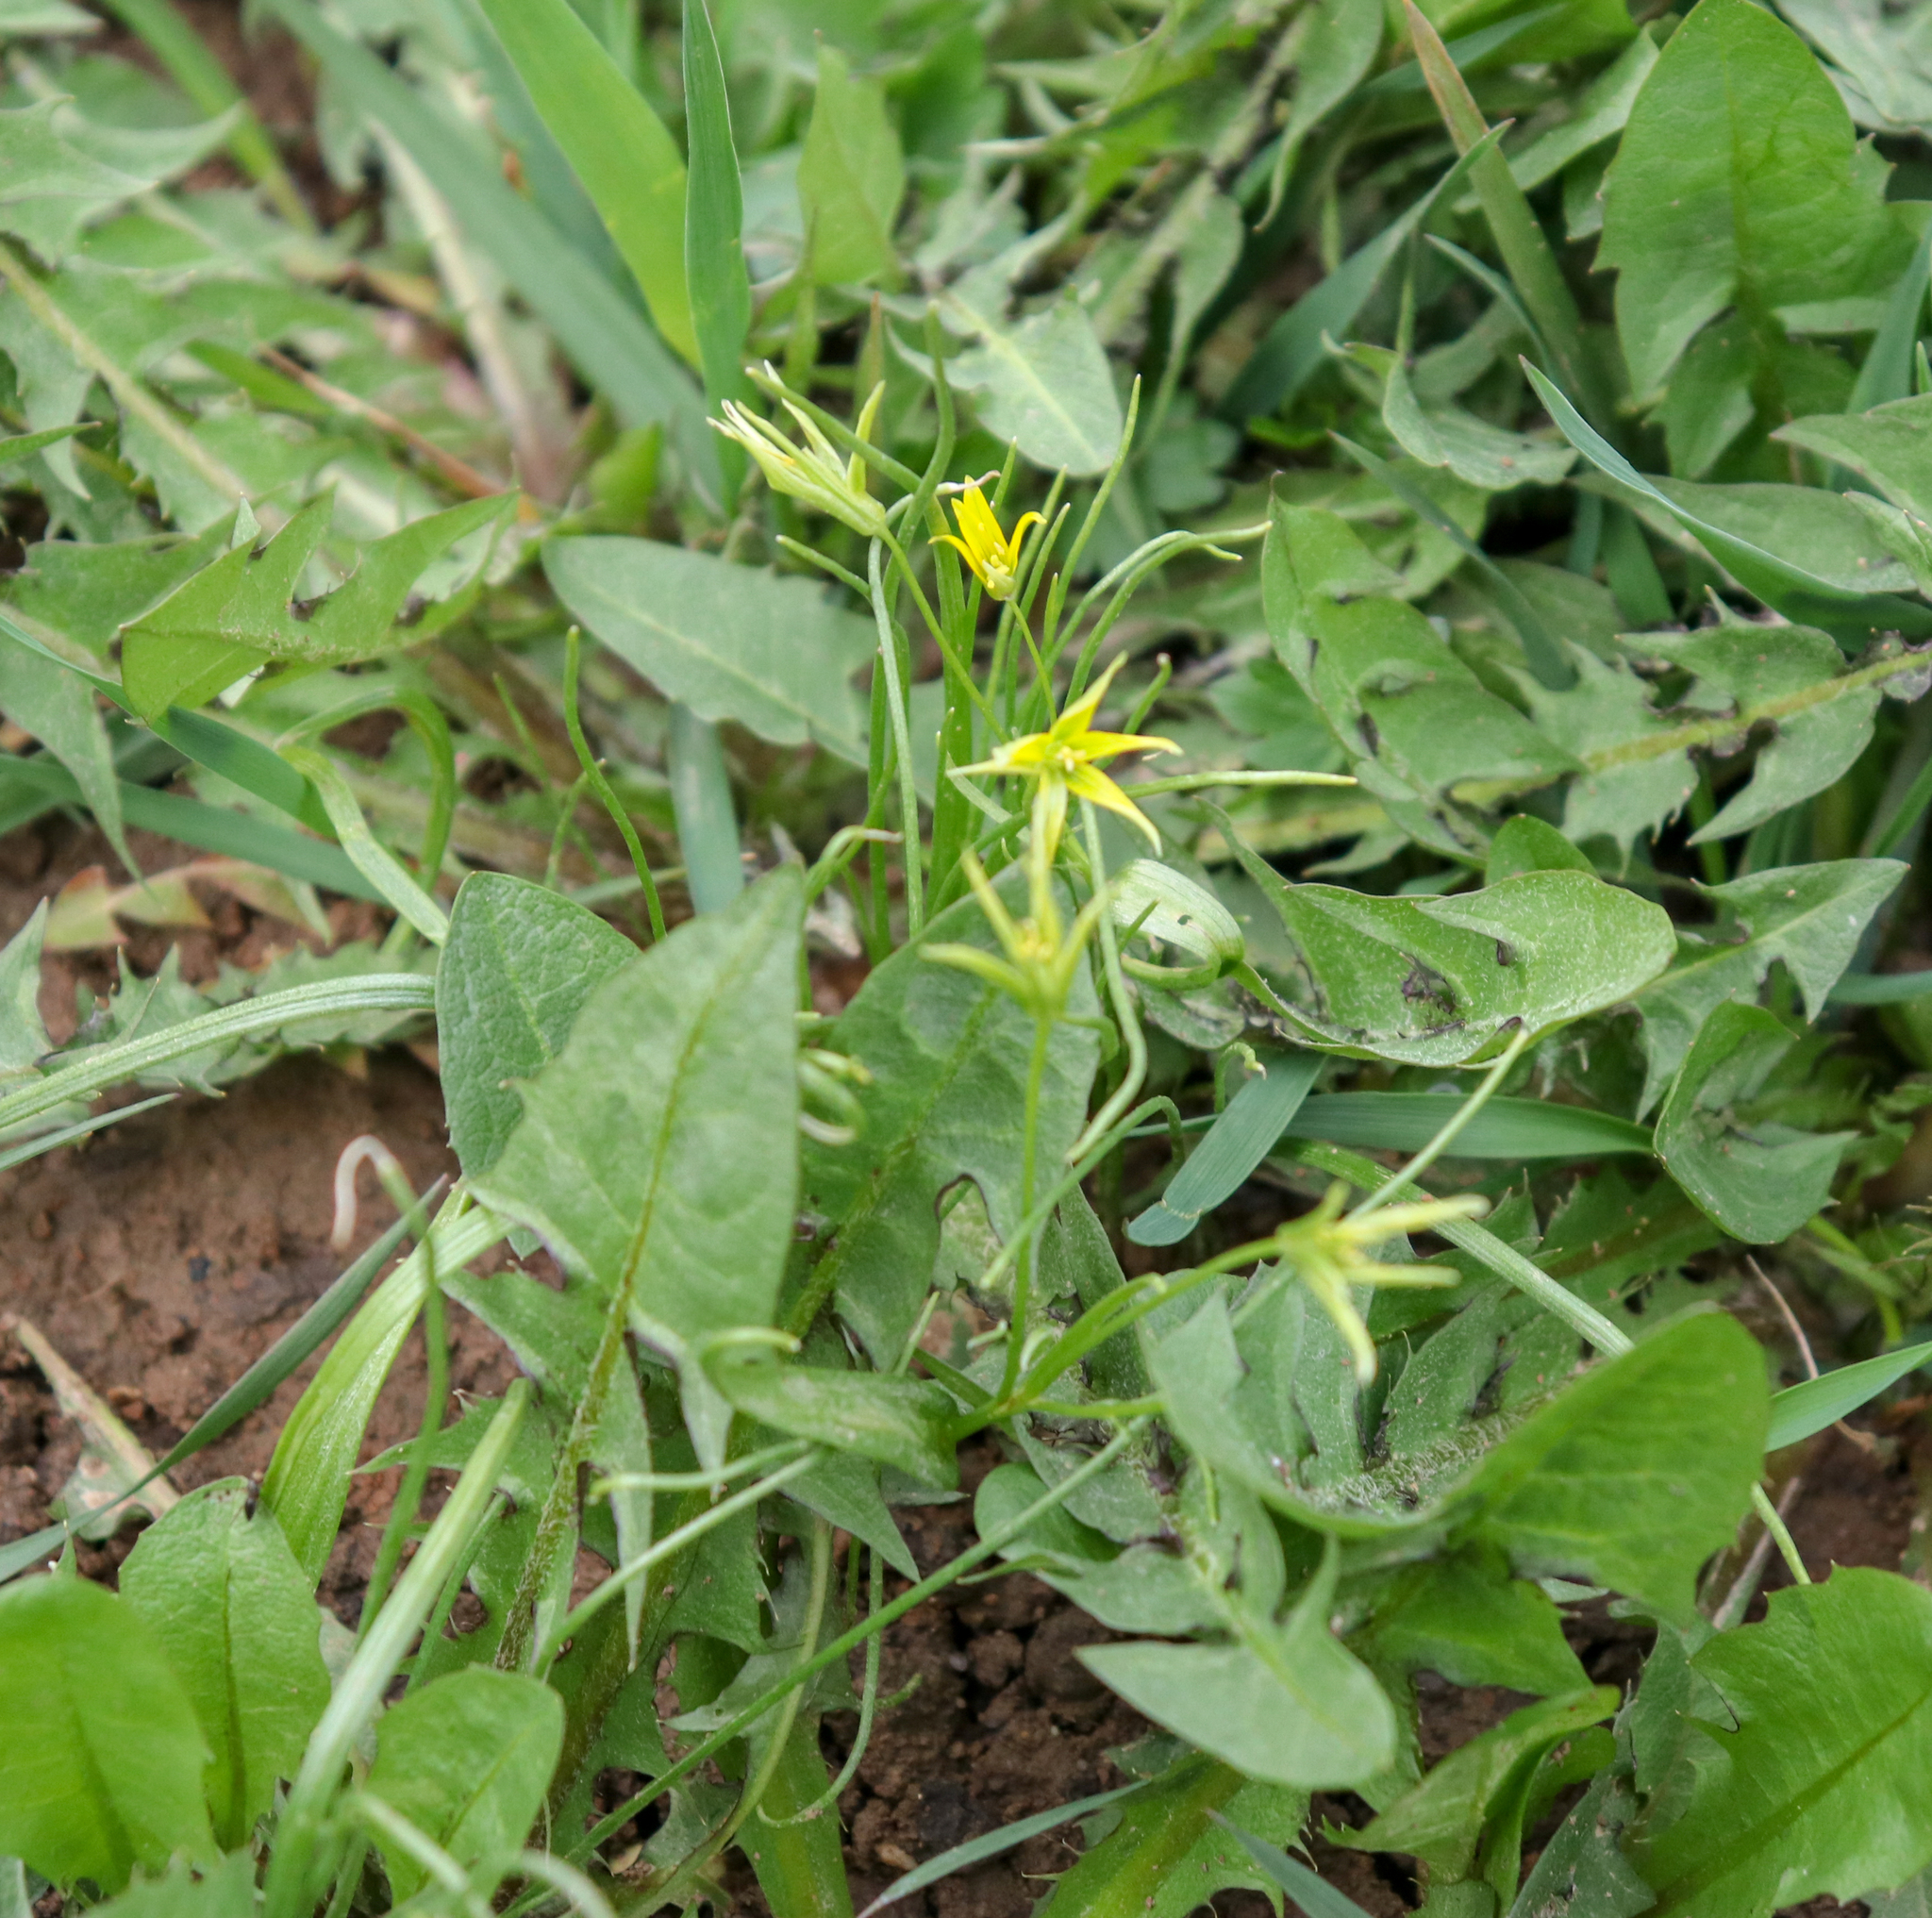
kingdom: Plantae
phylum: Tracheophyta
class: Liliopsida
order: Liliales
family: Liliaceae
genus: Gagea
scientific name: Gagea minima
